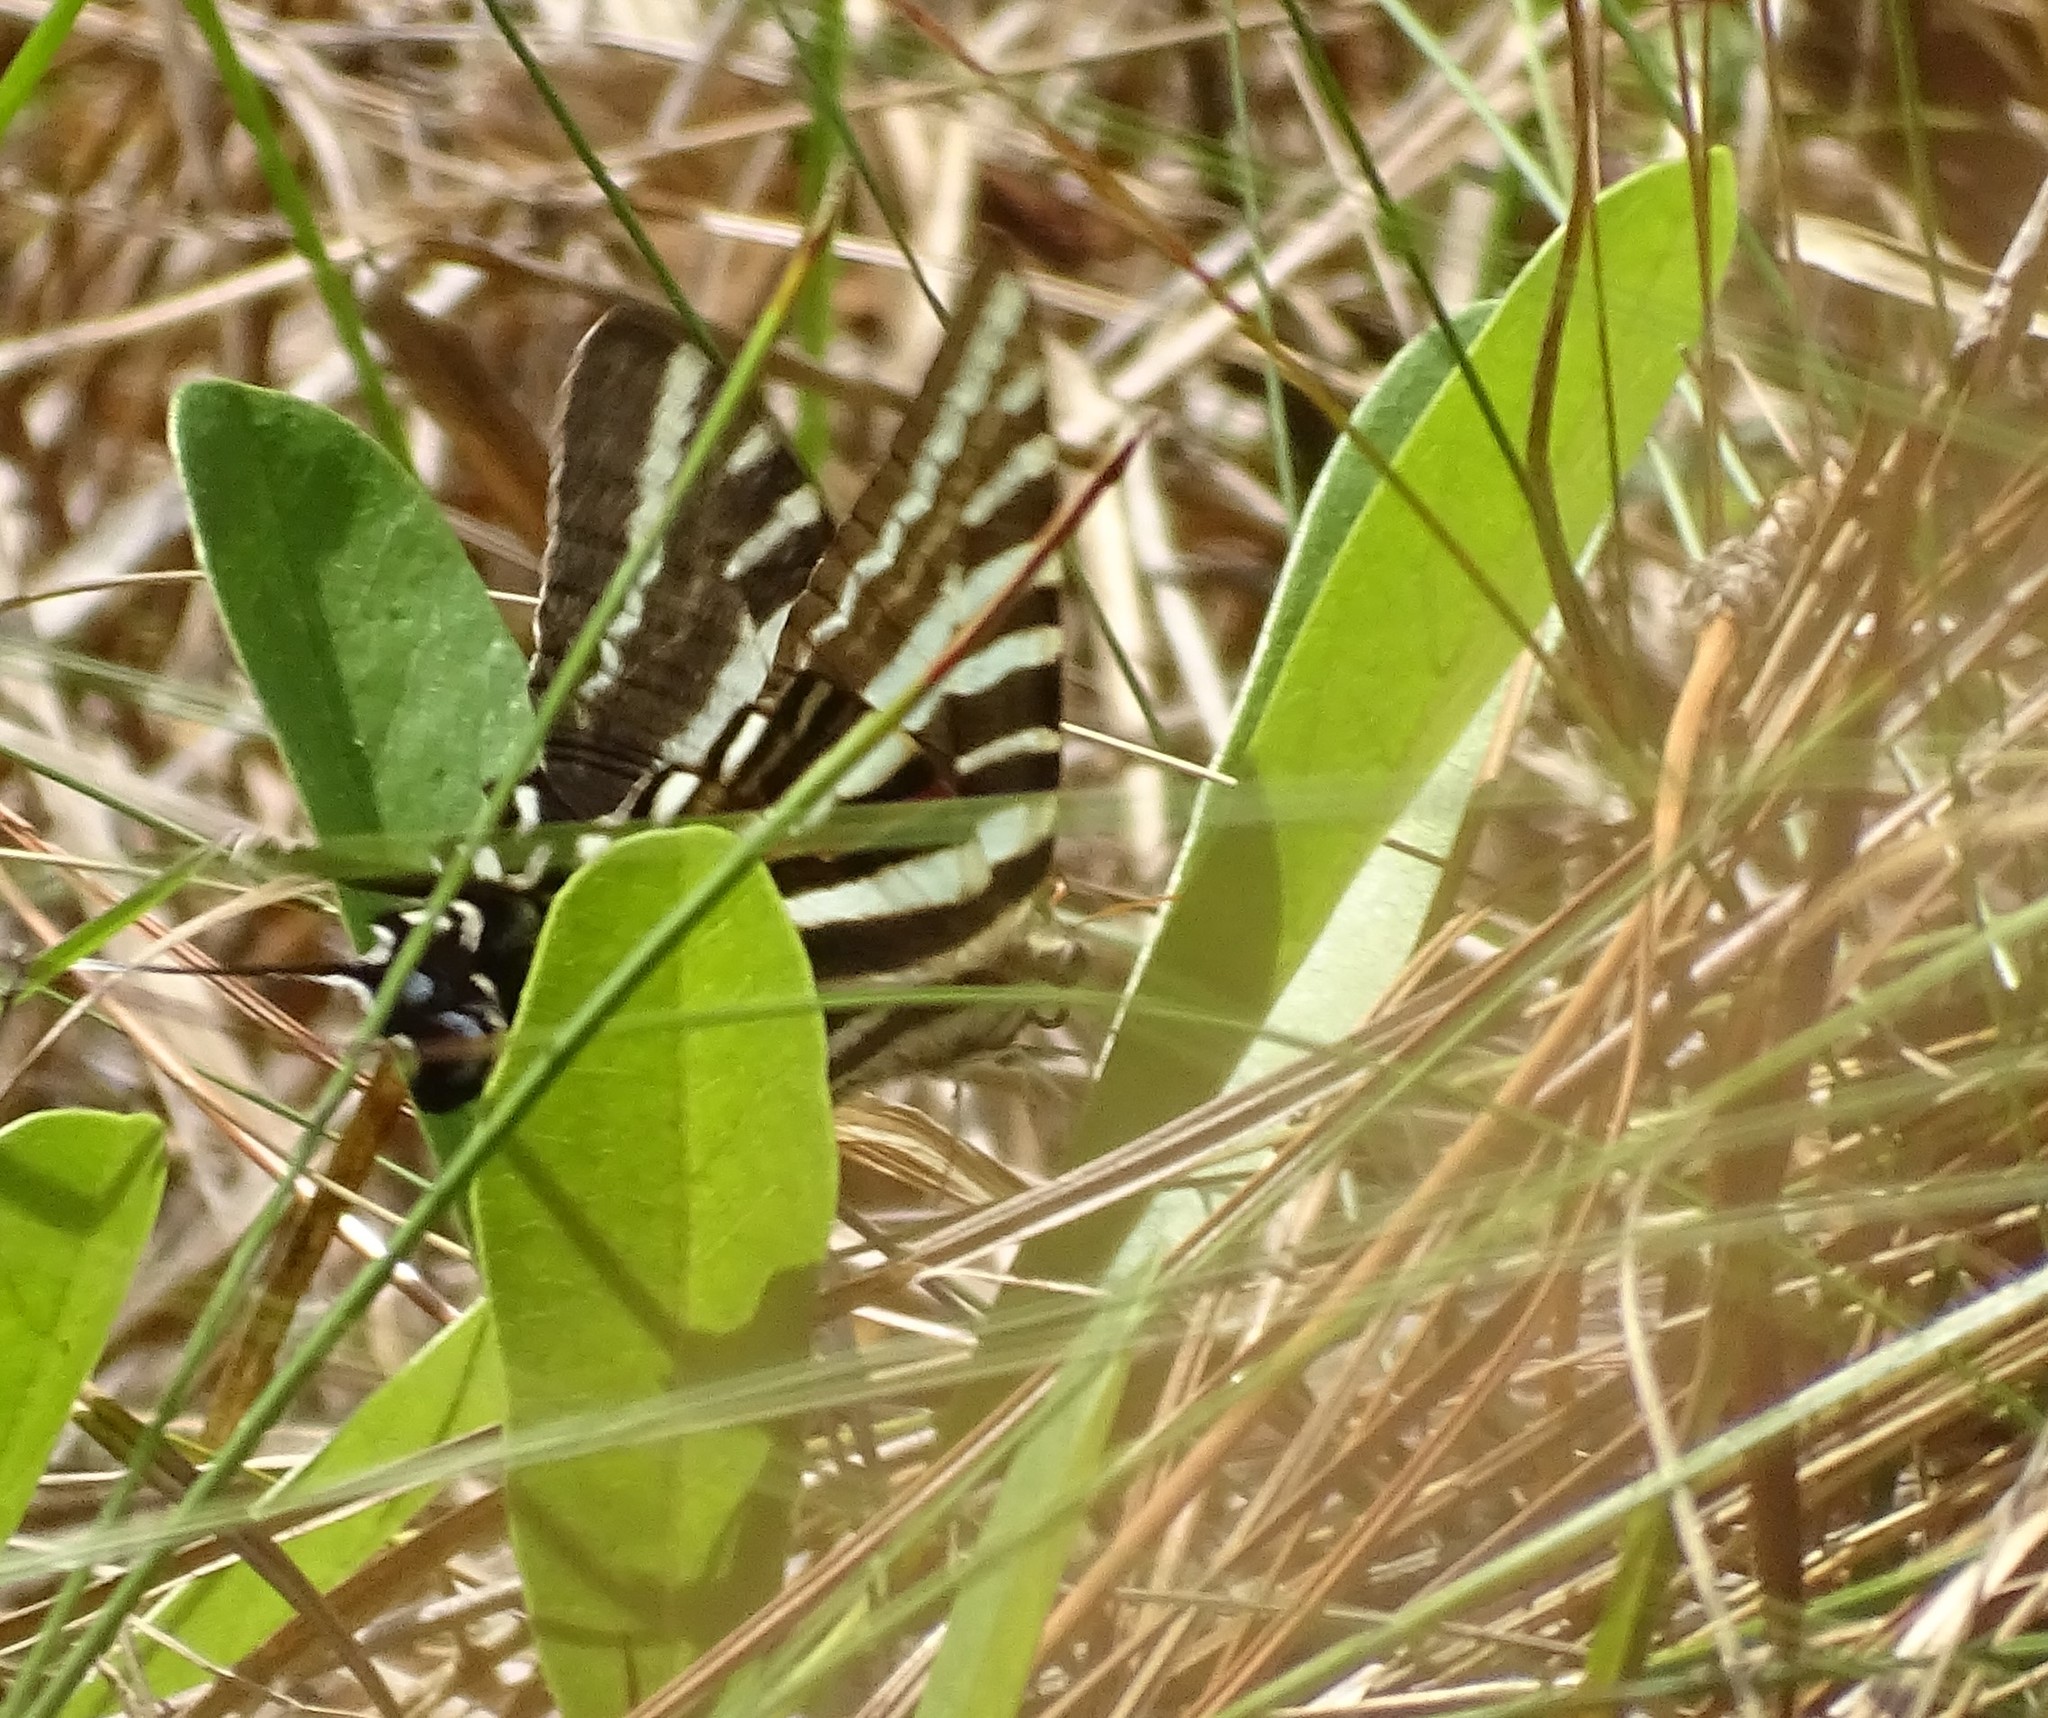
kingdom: Animalia
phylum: Arthropoda
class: Insecta
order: Lepidoptera
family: Papilionidae
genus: Protographium
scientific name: Protographium marcellus
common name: Zebra swallowtail
